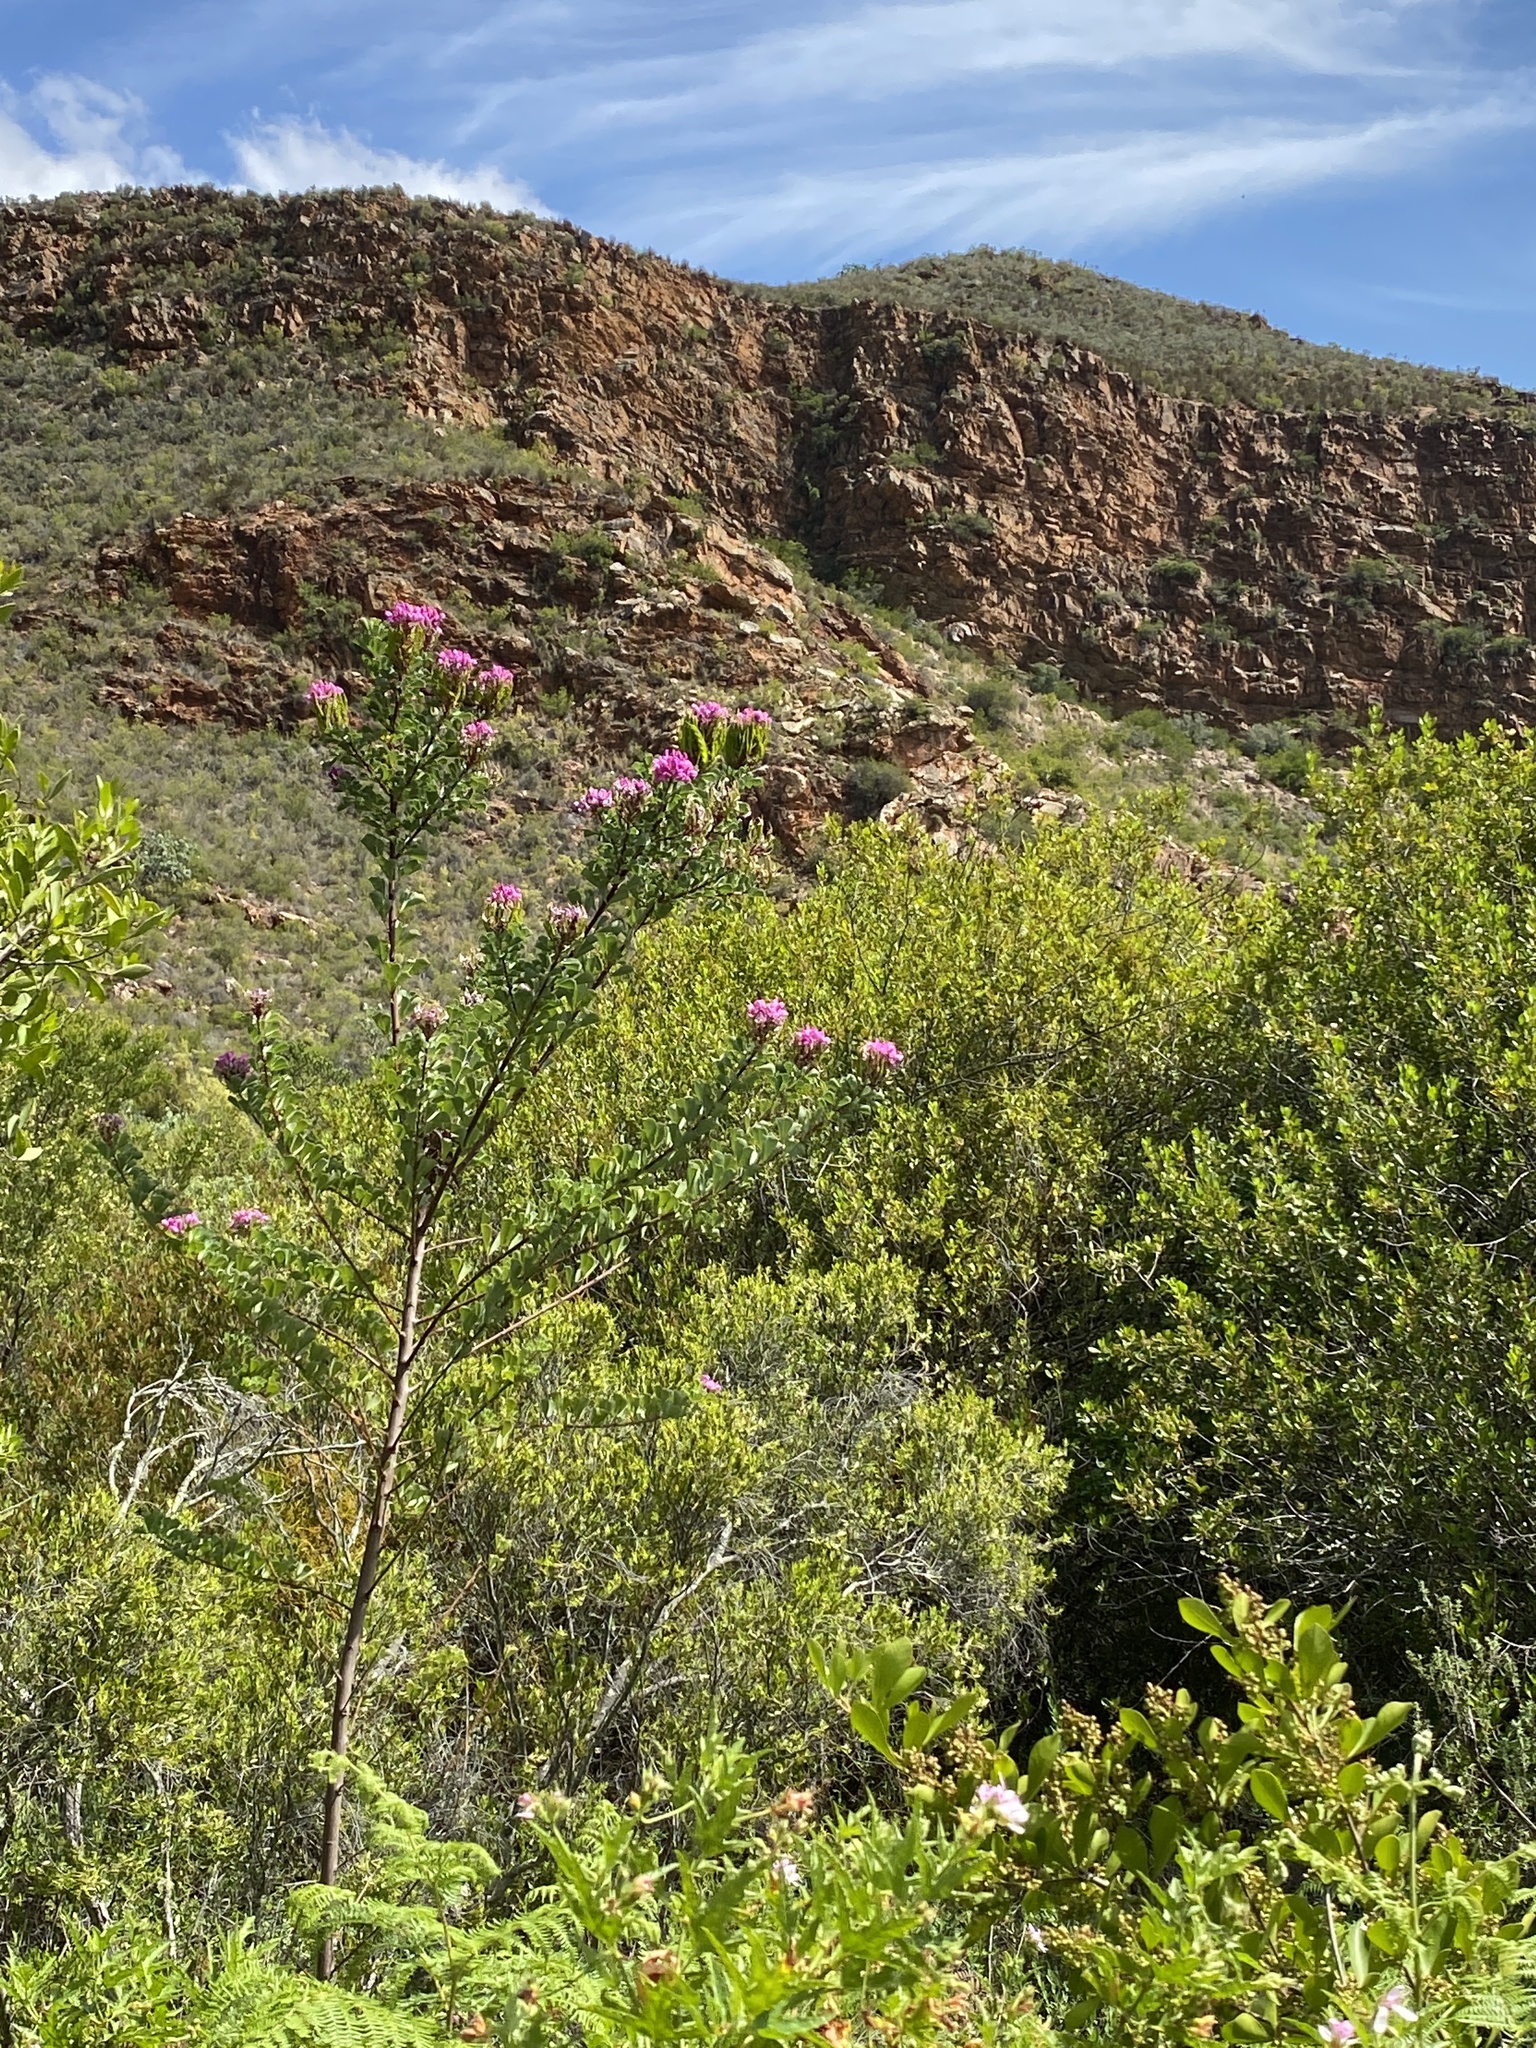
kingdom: Plantae
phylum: Tracheophyta
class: Magnoliopsida
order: Fabales
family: Fabaceae
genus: Hypocalyptus
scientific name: Hypocalyptus sophoroides
